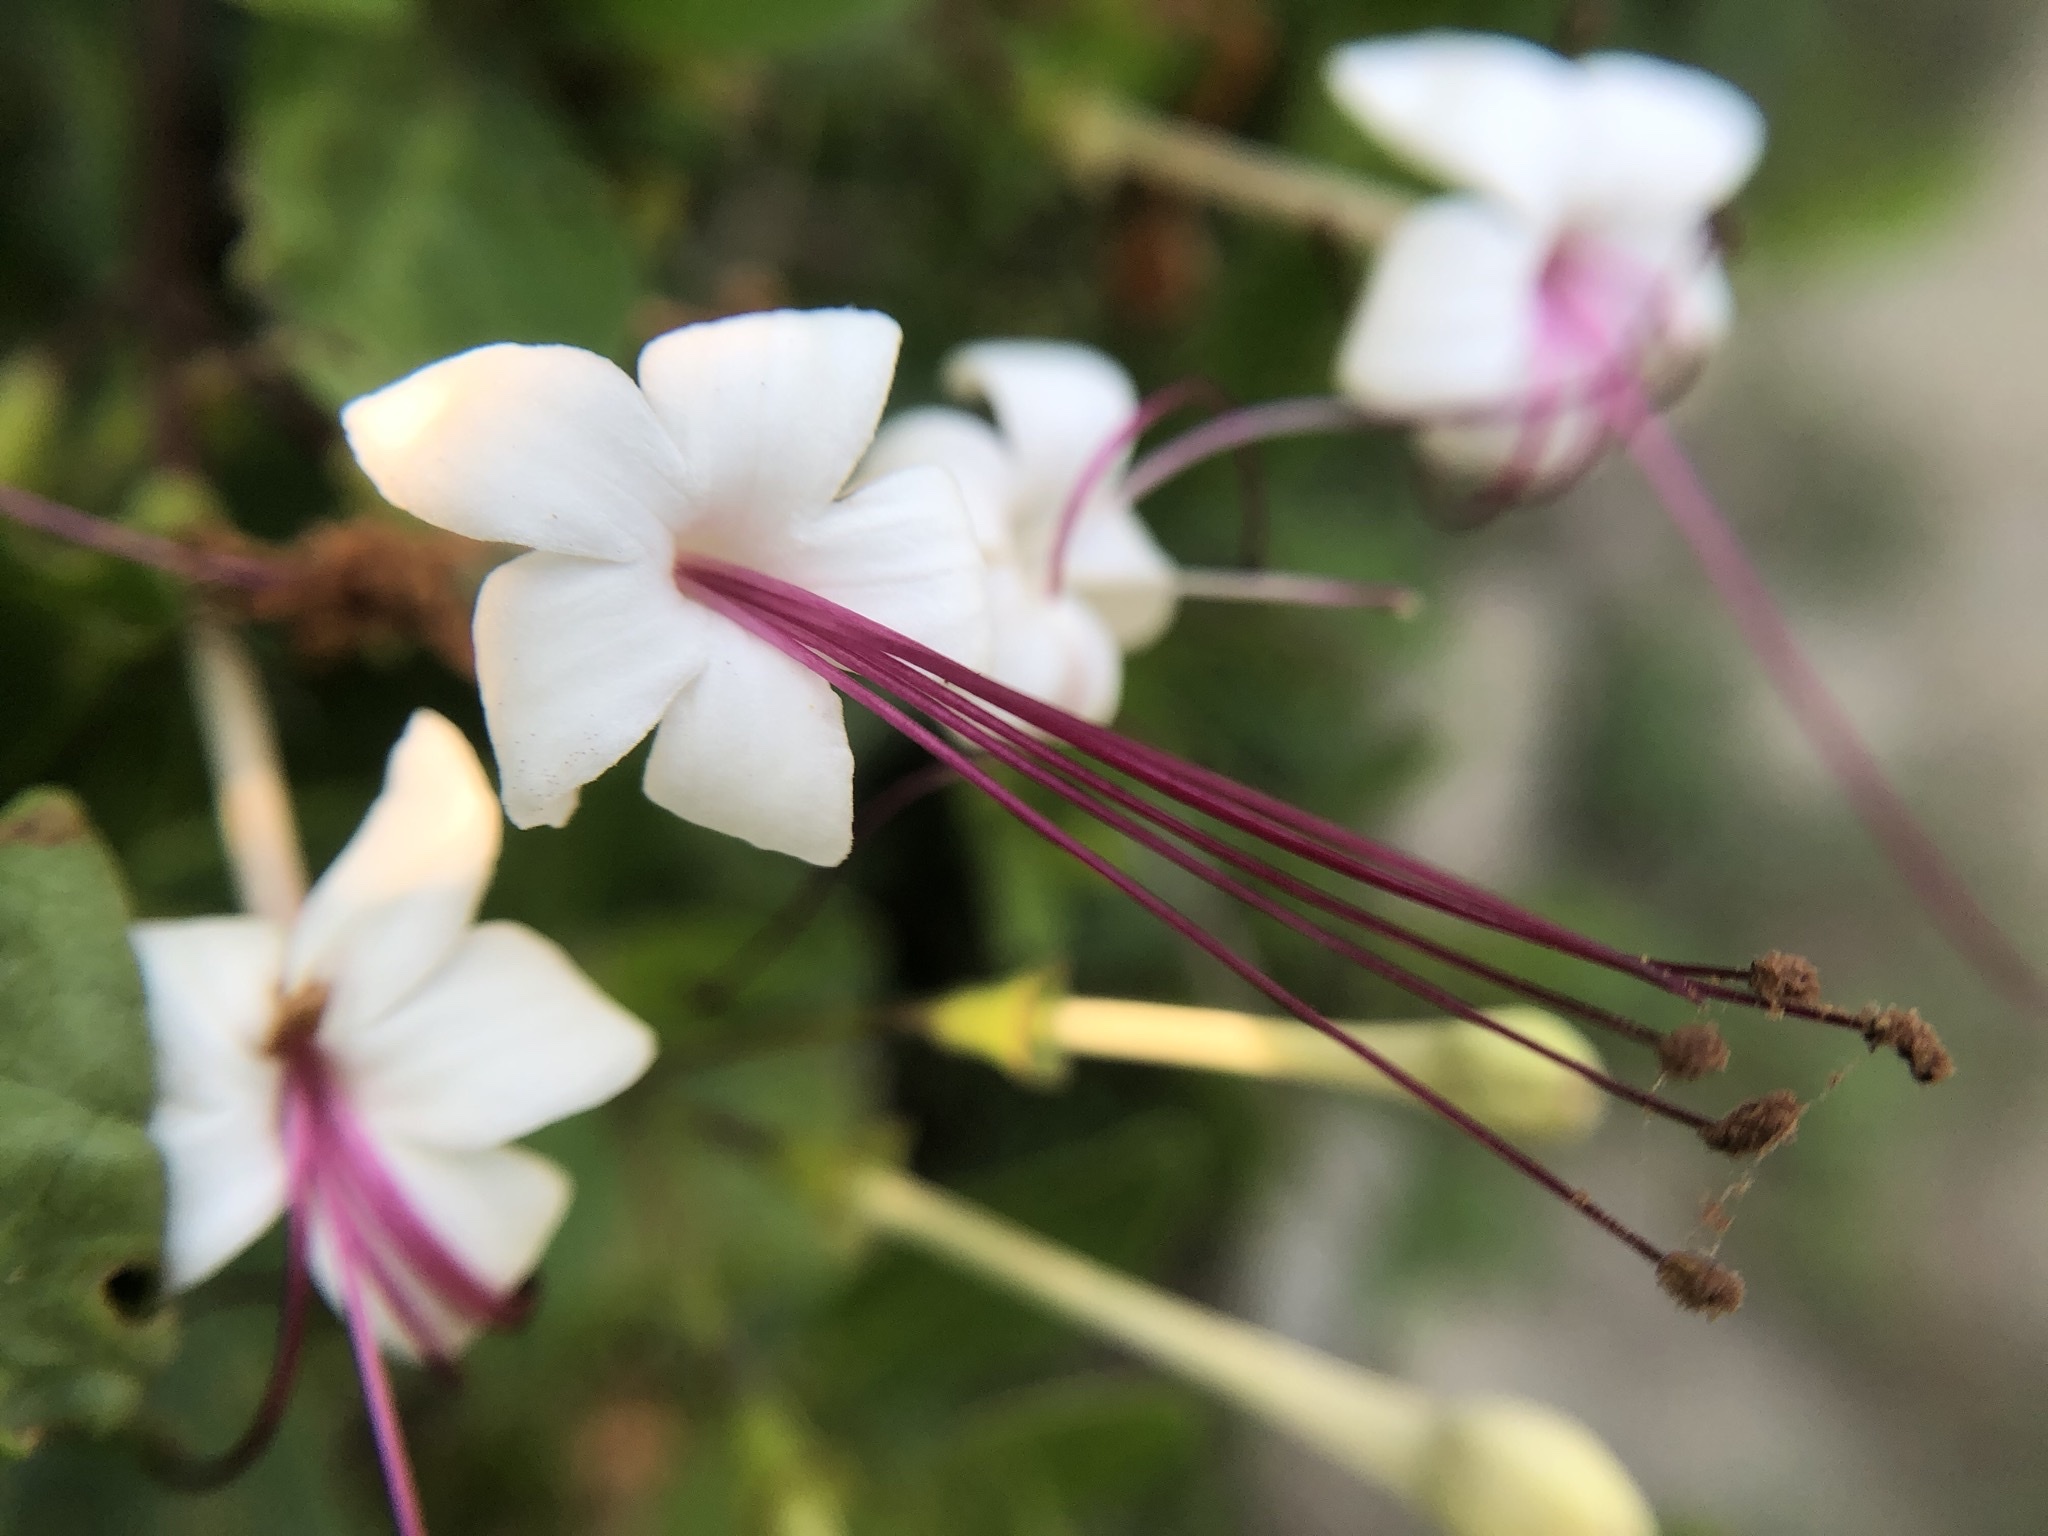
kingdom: Plantae
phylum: Tracheophyta
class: Magnoliopsida
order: Lamiales
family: Lamiaceae
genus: Volkameria
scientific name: Volkameria inermis
